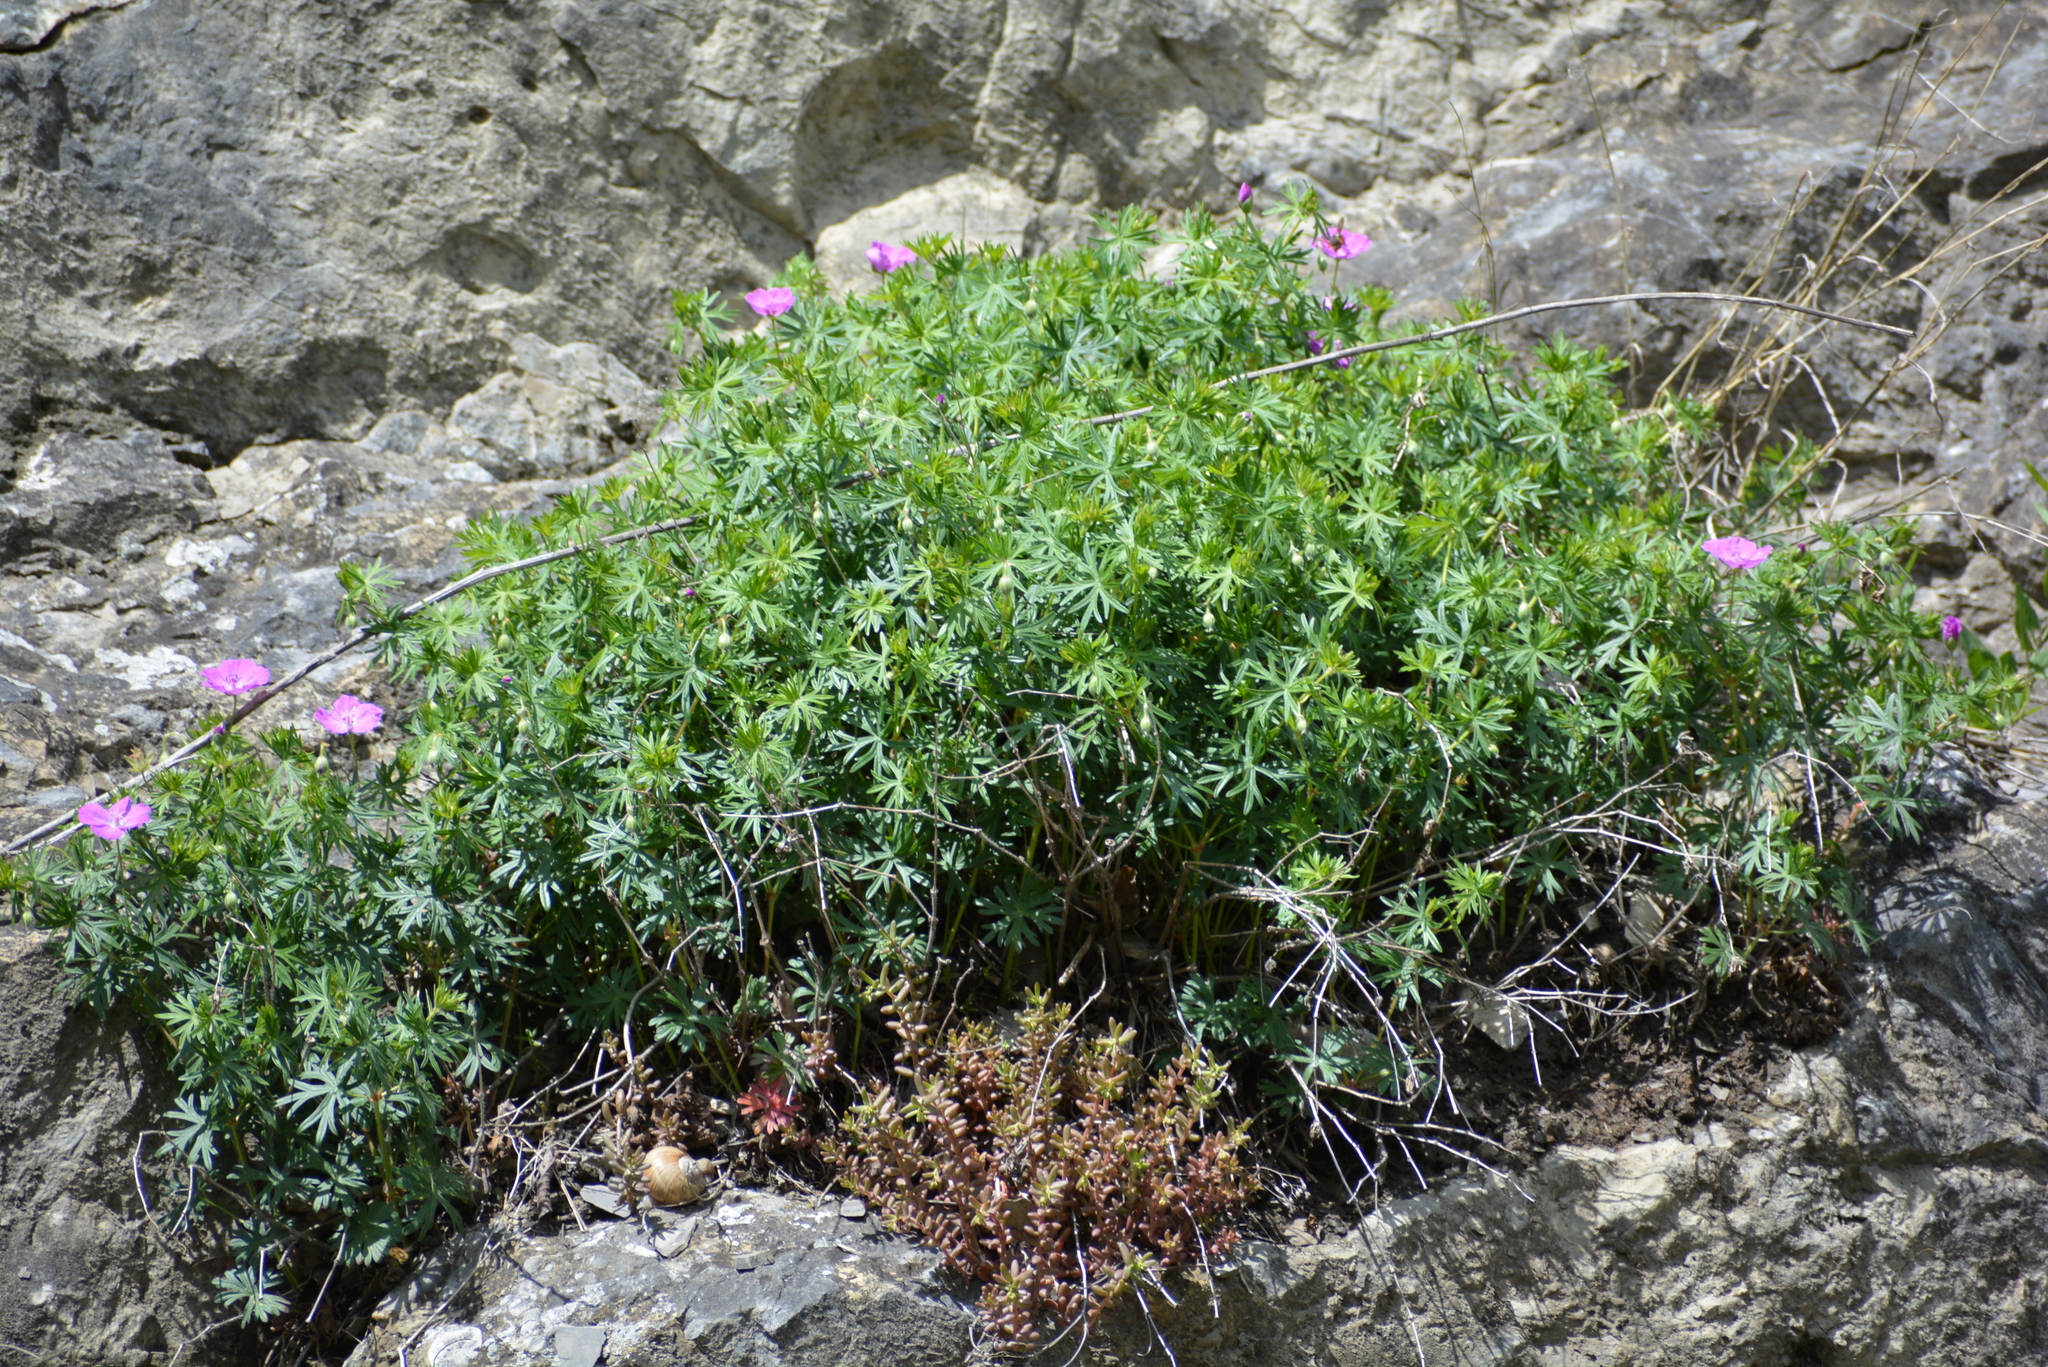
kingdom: Plantae
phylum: Tracheophyta
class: Magnoliopsida
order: Geraniales
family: Geraniaceae
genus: Geranium
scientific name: Geranium sanguineum
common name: Bloody crane's-bill
